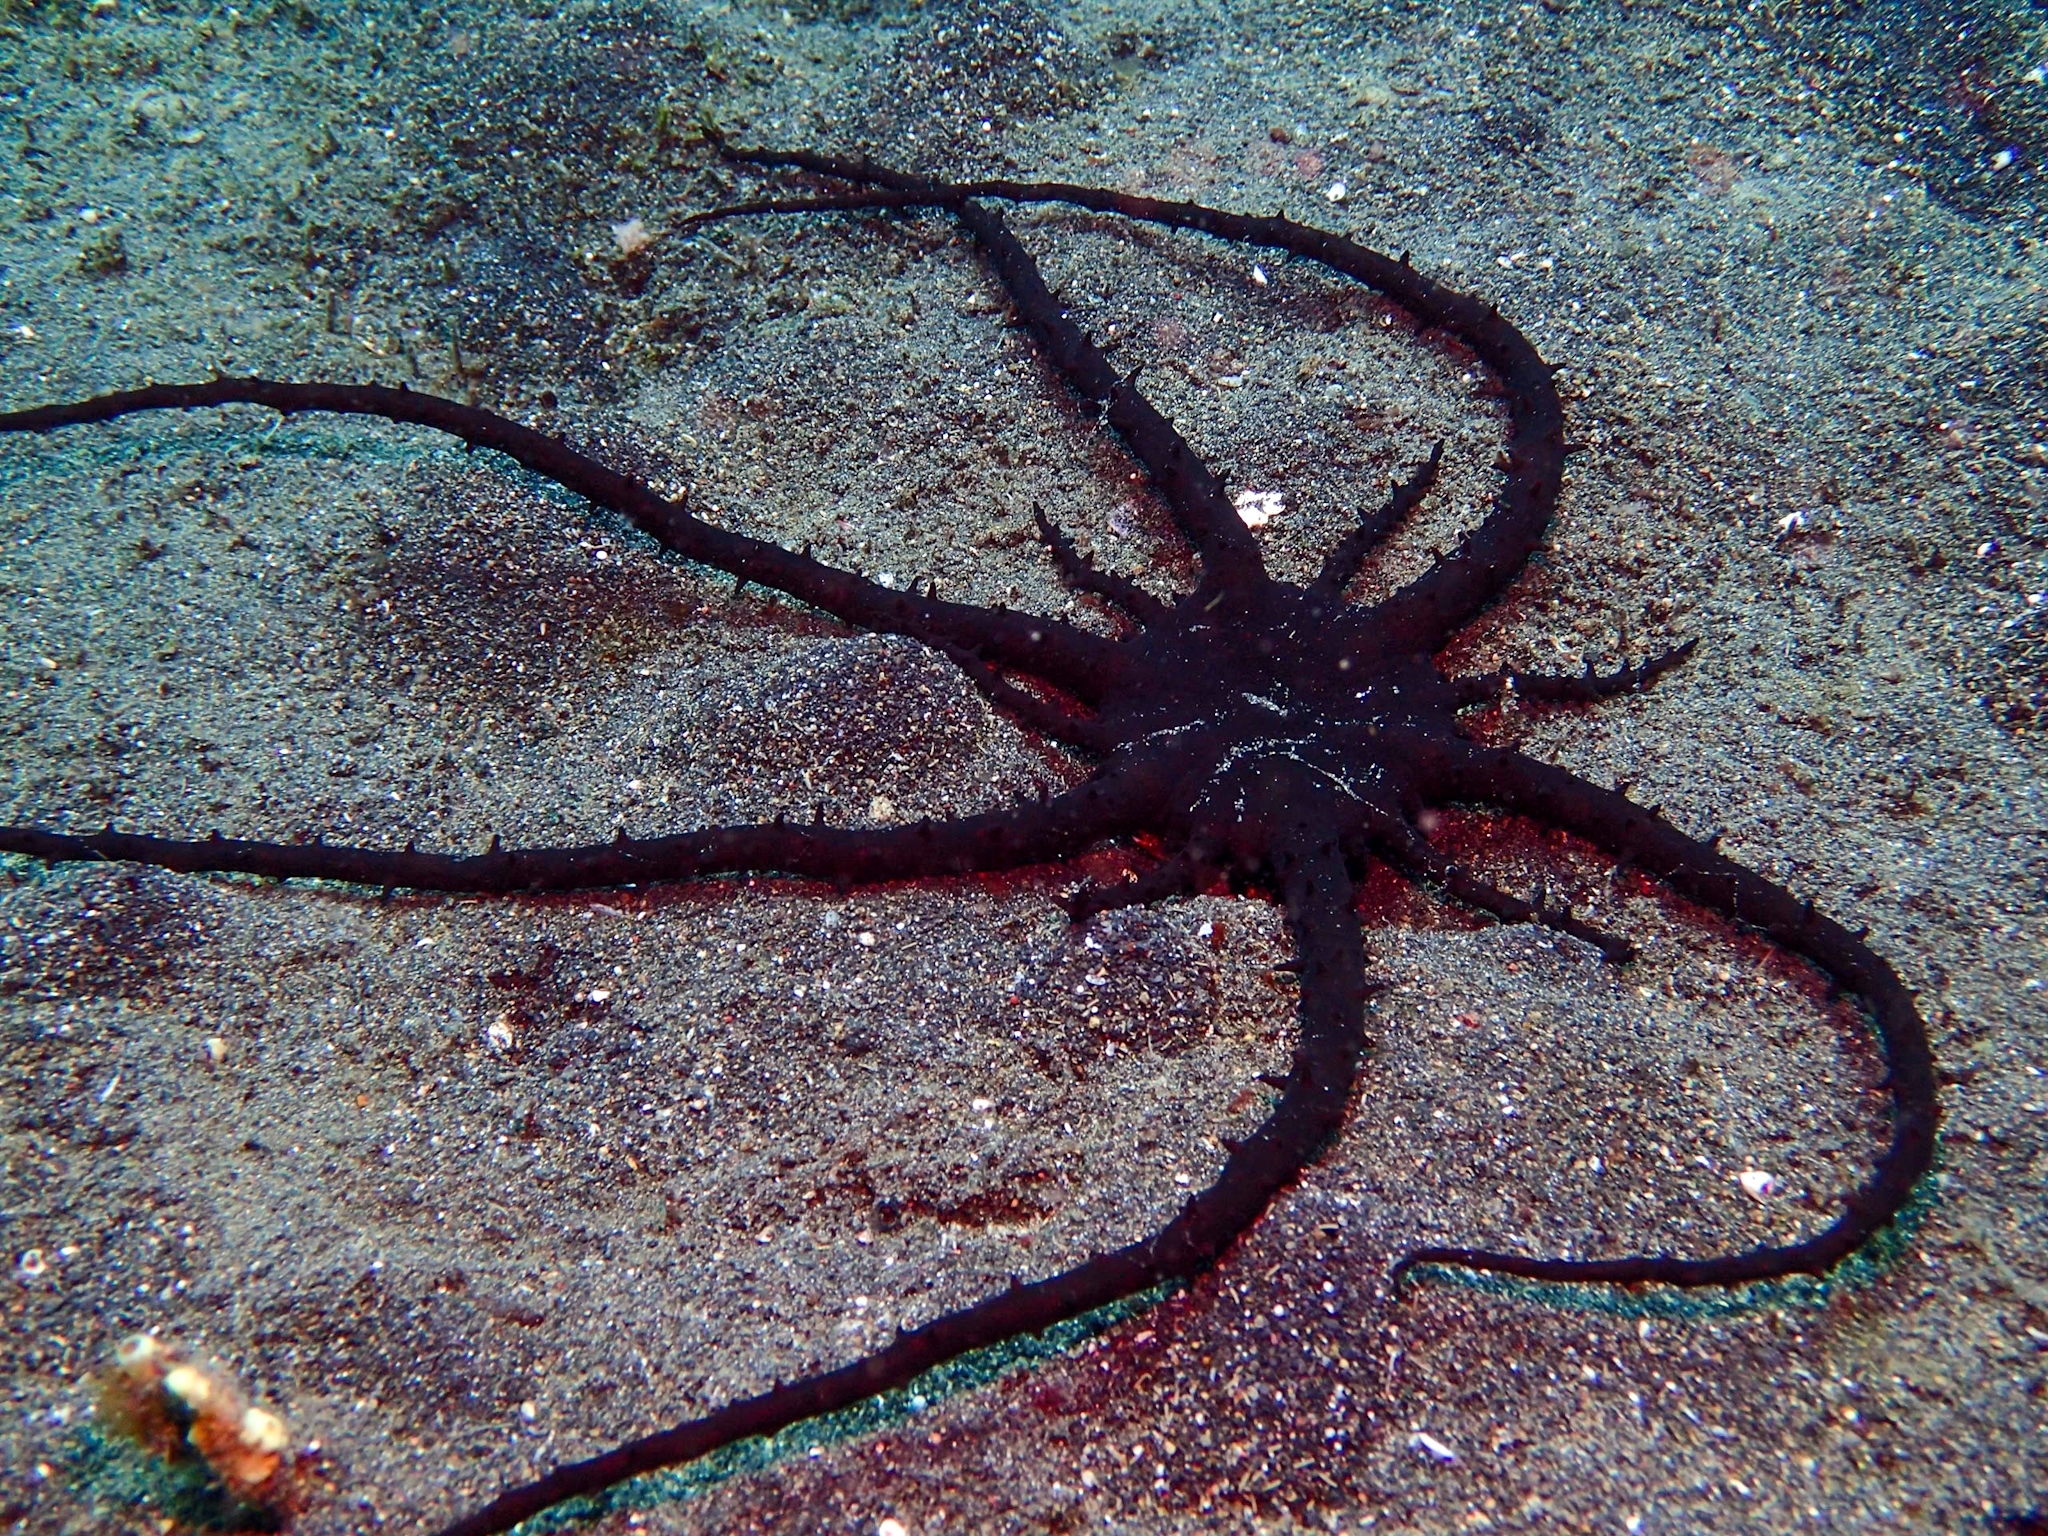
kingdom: Animalia
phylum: Cnidaria
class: Anthozoa
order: Actiniaria
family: Actinodendridae
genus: Actinostephanus
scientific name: Actinostephanus haeckeli
